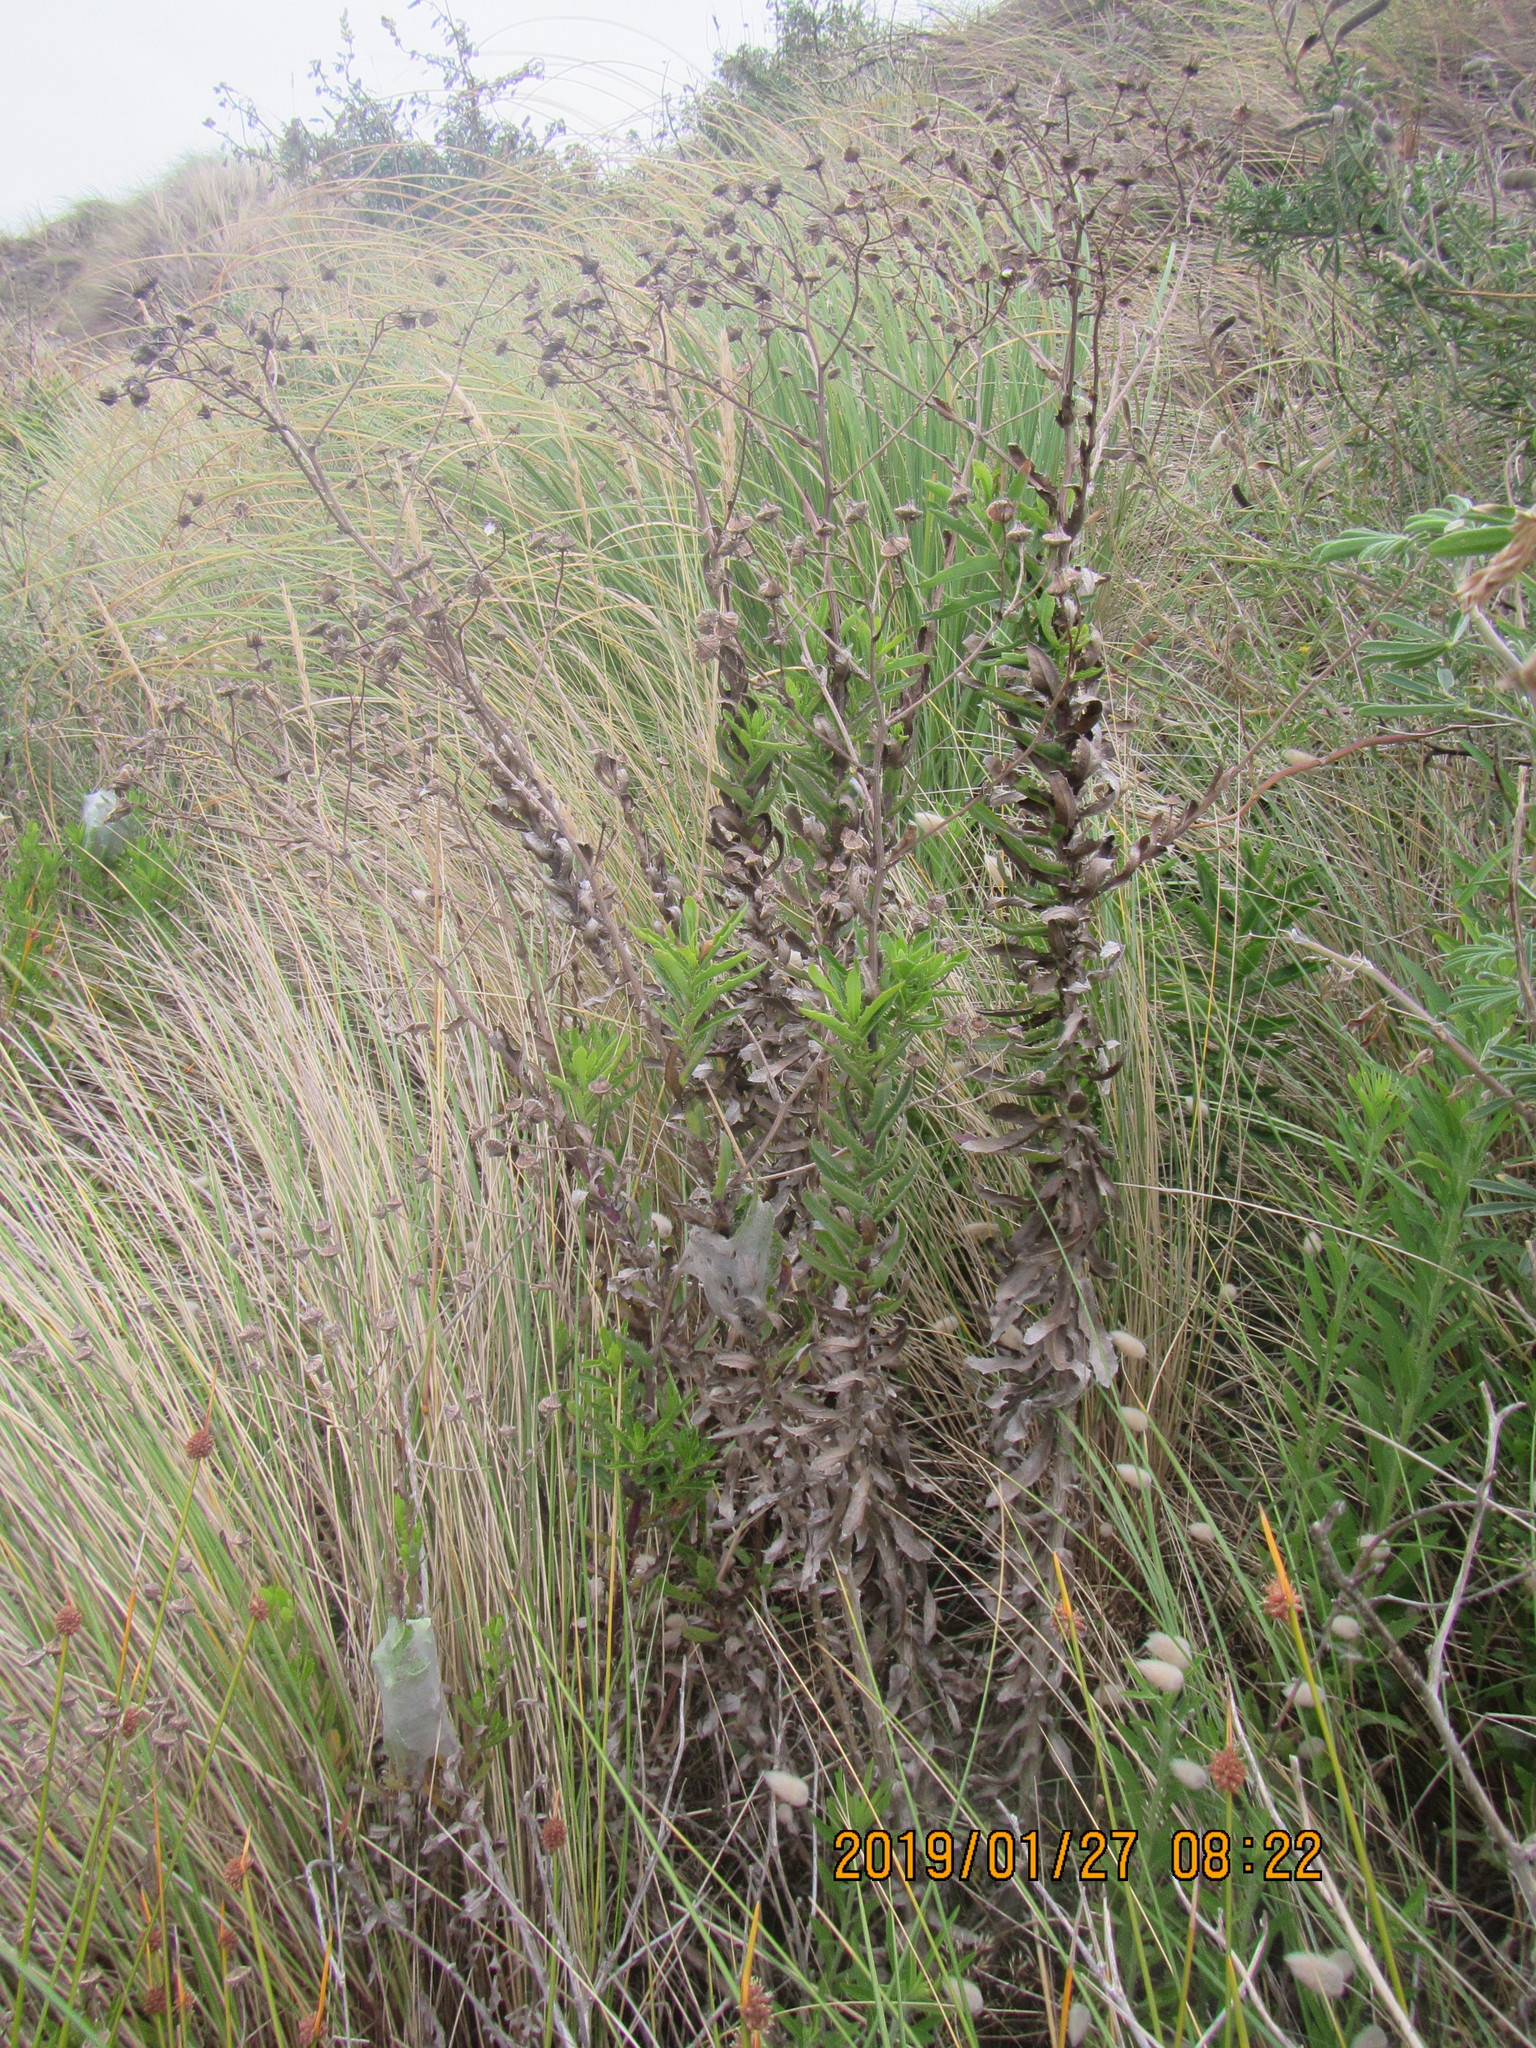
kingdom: Plantae
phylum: Tracheophyta
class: Magnoliopsida
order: Asterales
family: Asteraceae
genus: Senecio
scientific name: Senecio glastifolius
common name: Woad-leaved ragwort
